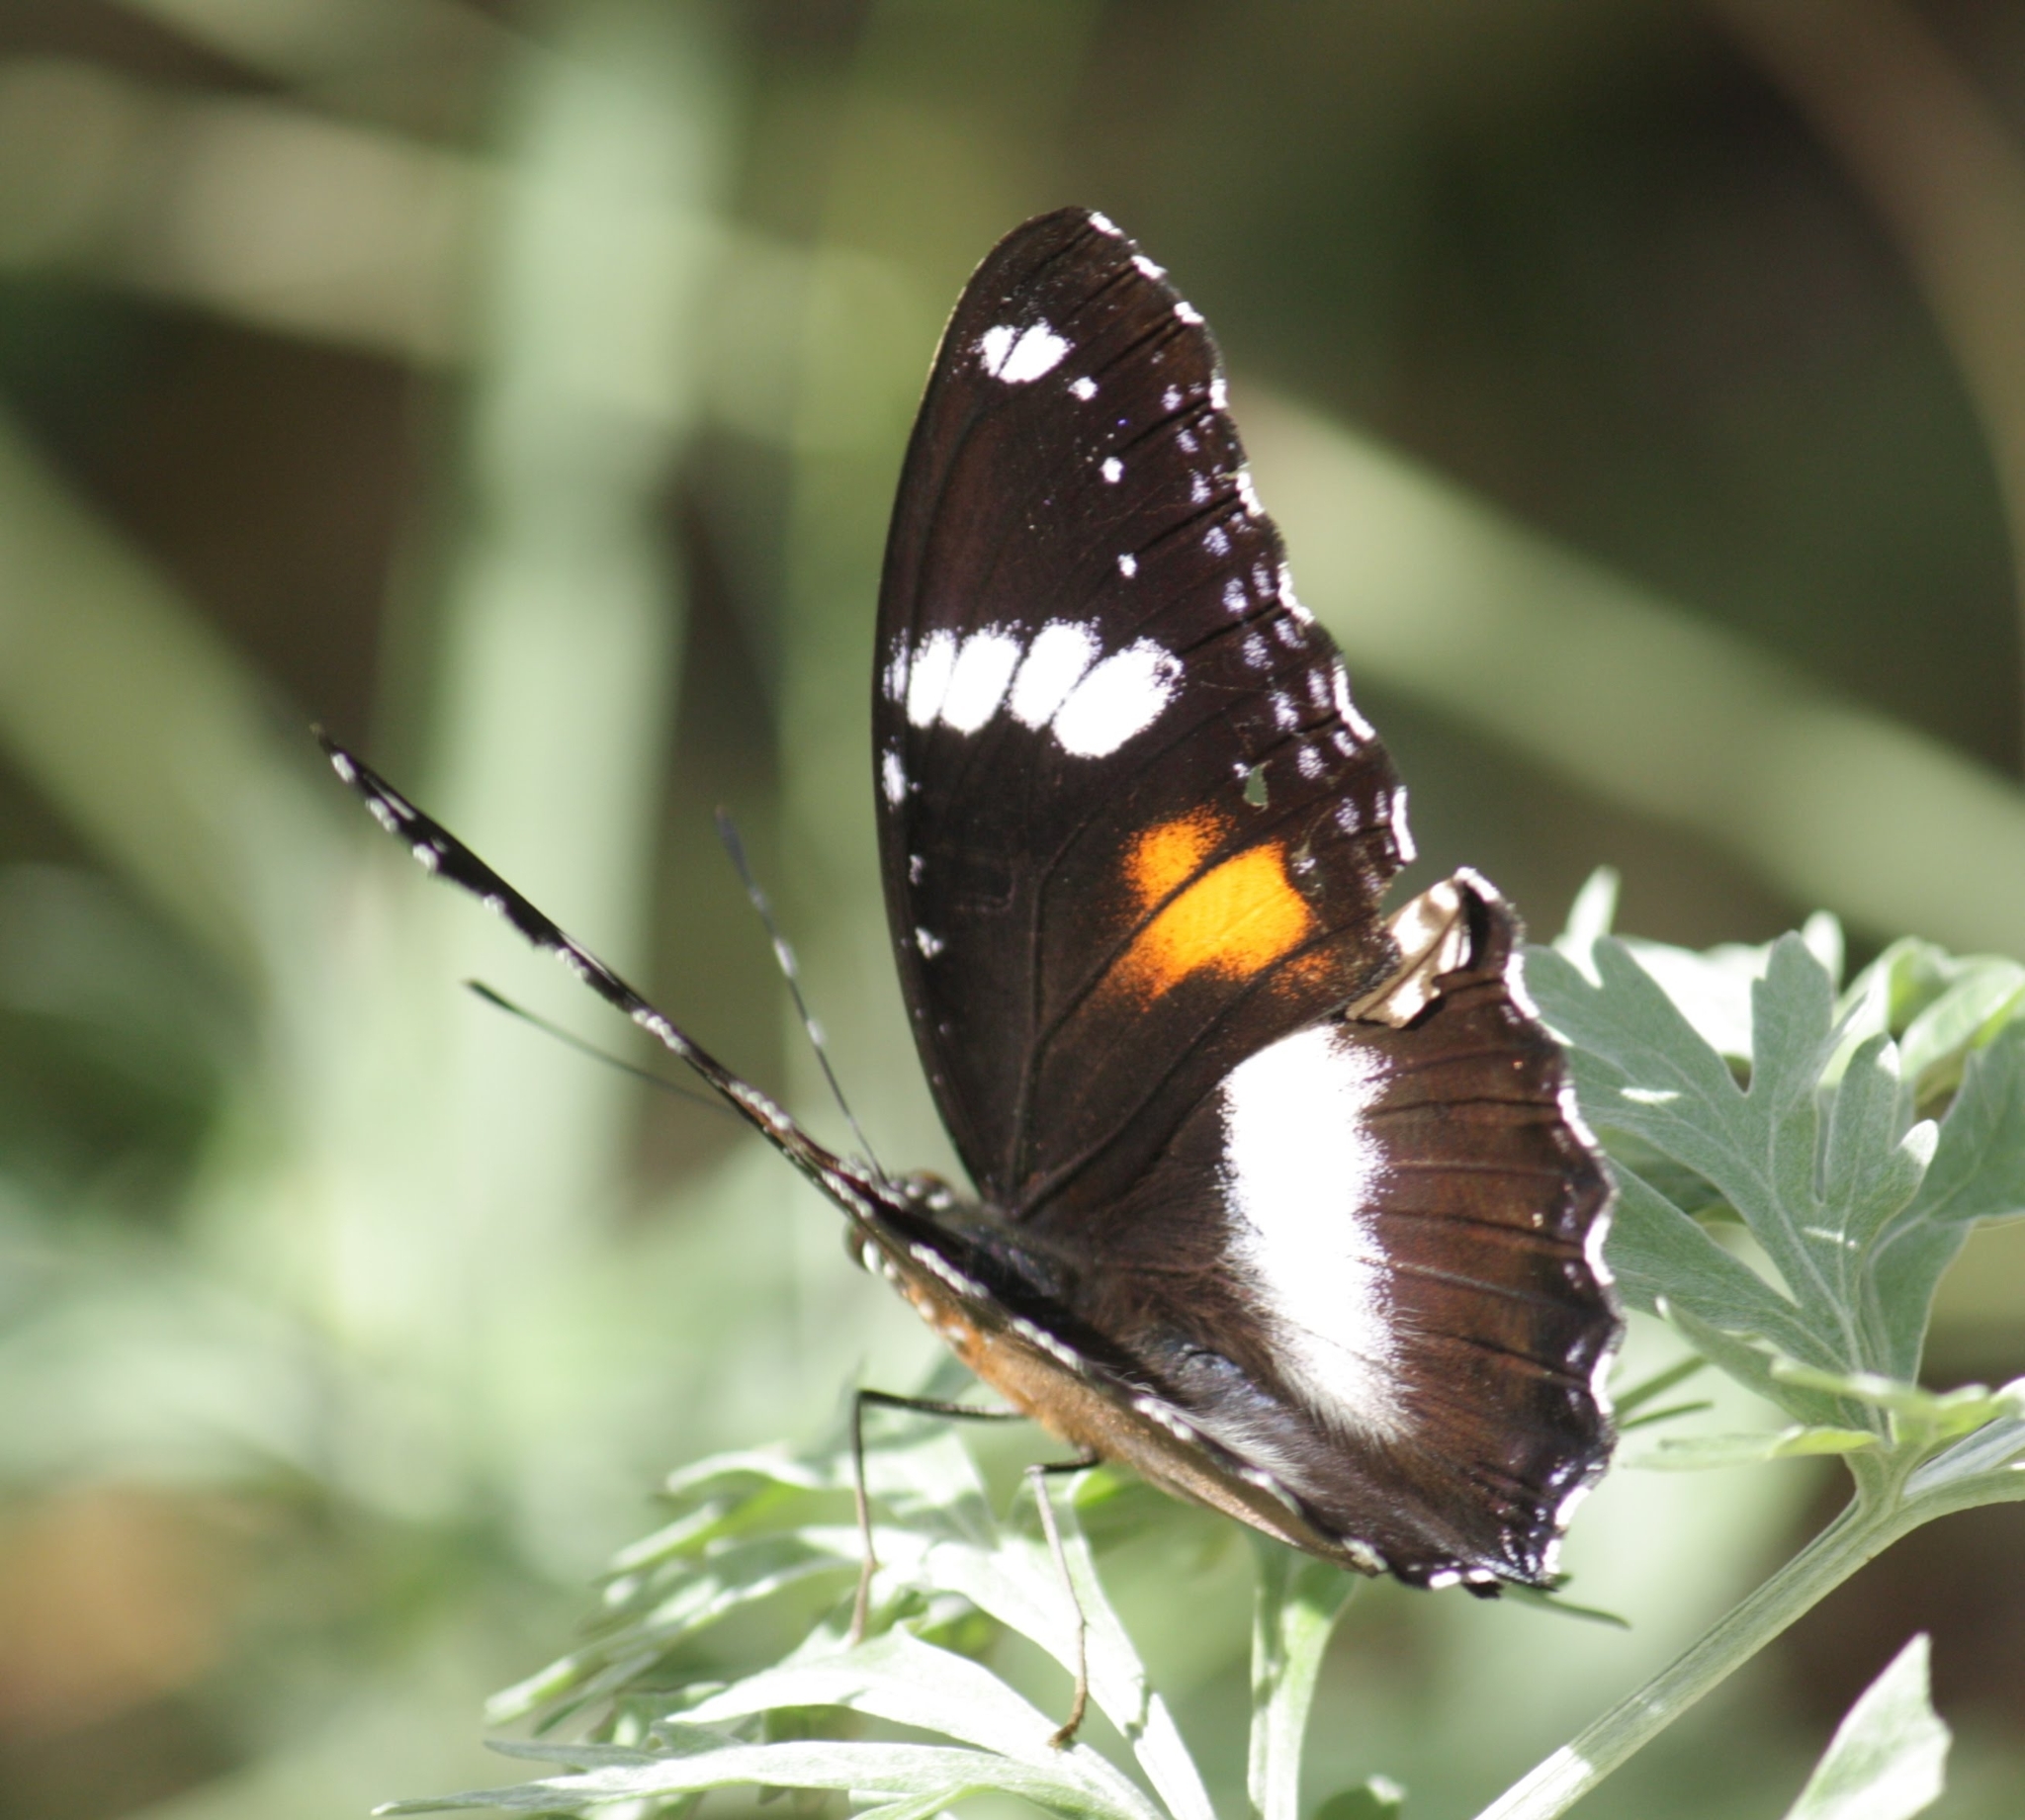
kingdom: Animalia
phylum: Arthropoda
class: Insecta
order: Lepidoptera
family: Nymphalidae
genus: Hypolimnas
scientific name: Hypolimnas bolina
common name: Great eggfly
